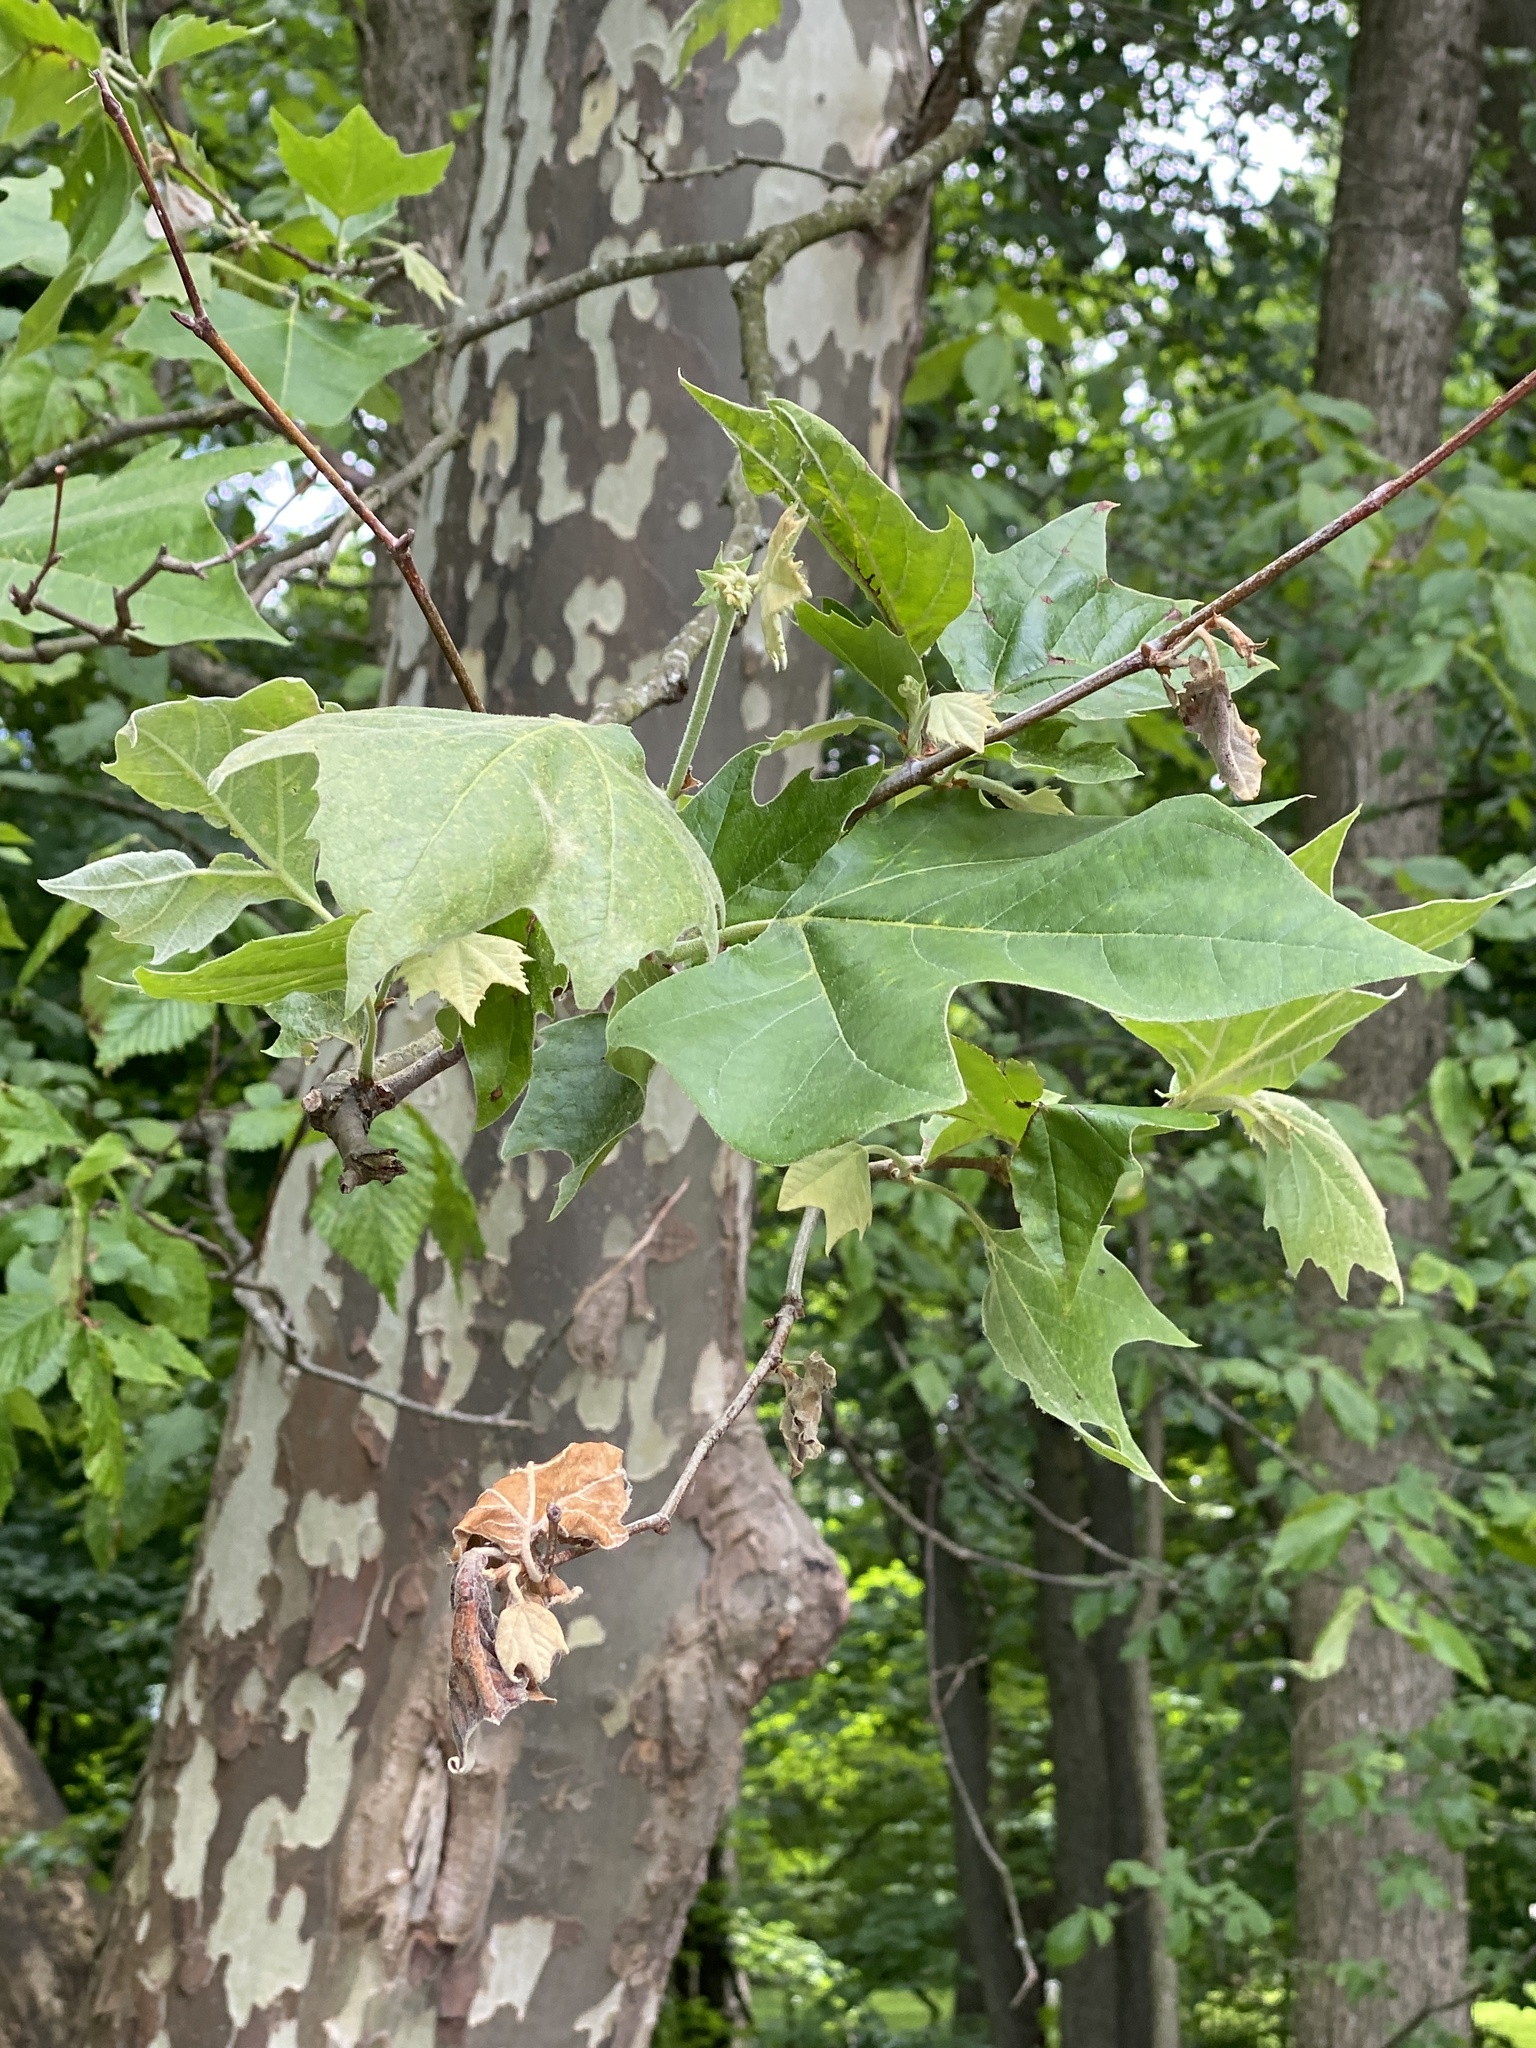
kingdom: Plantae
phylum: Tracheophyta
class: Magnoliopsida
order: Proteales
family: Platanaceae
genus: Platanus
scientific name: Platanus occidentalis
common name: American sycamore
